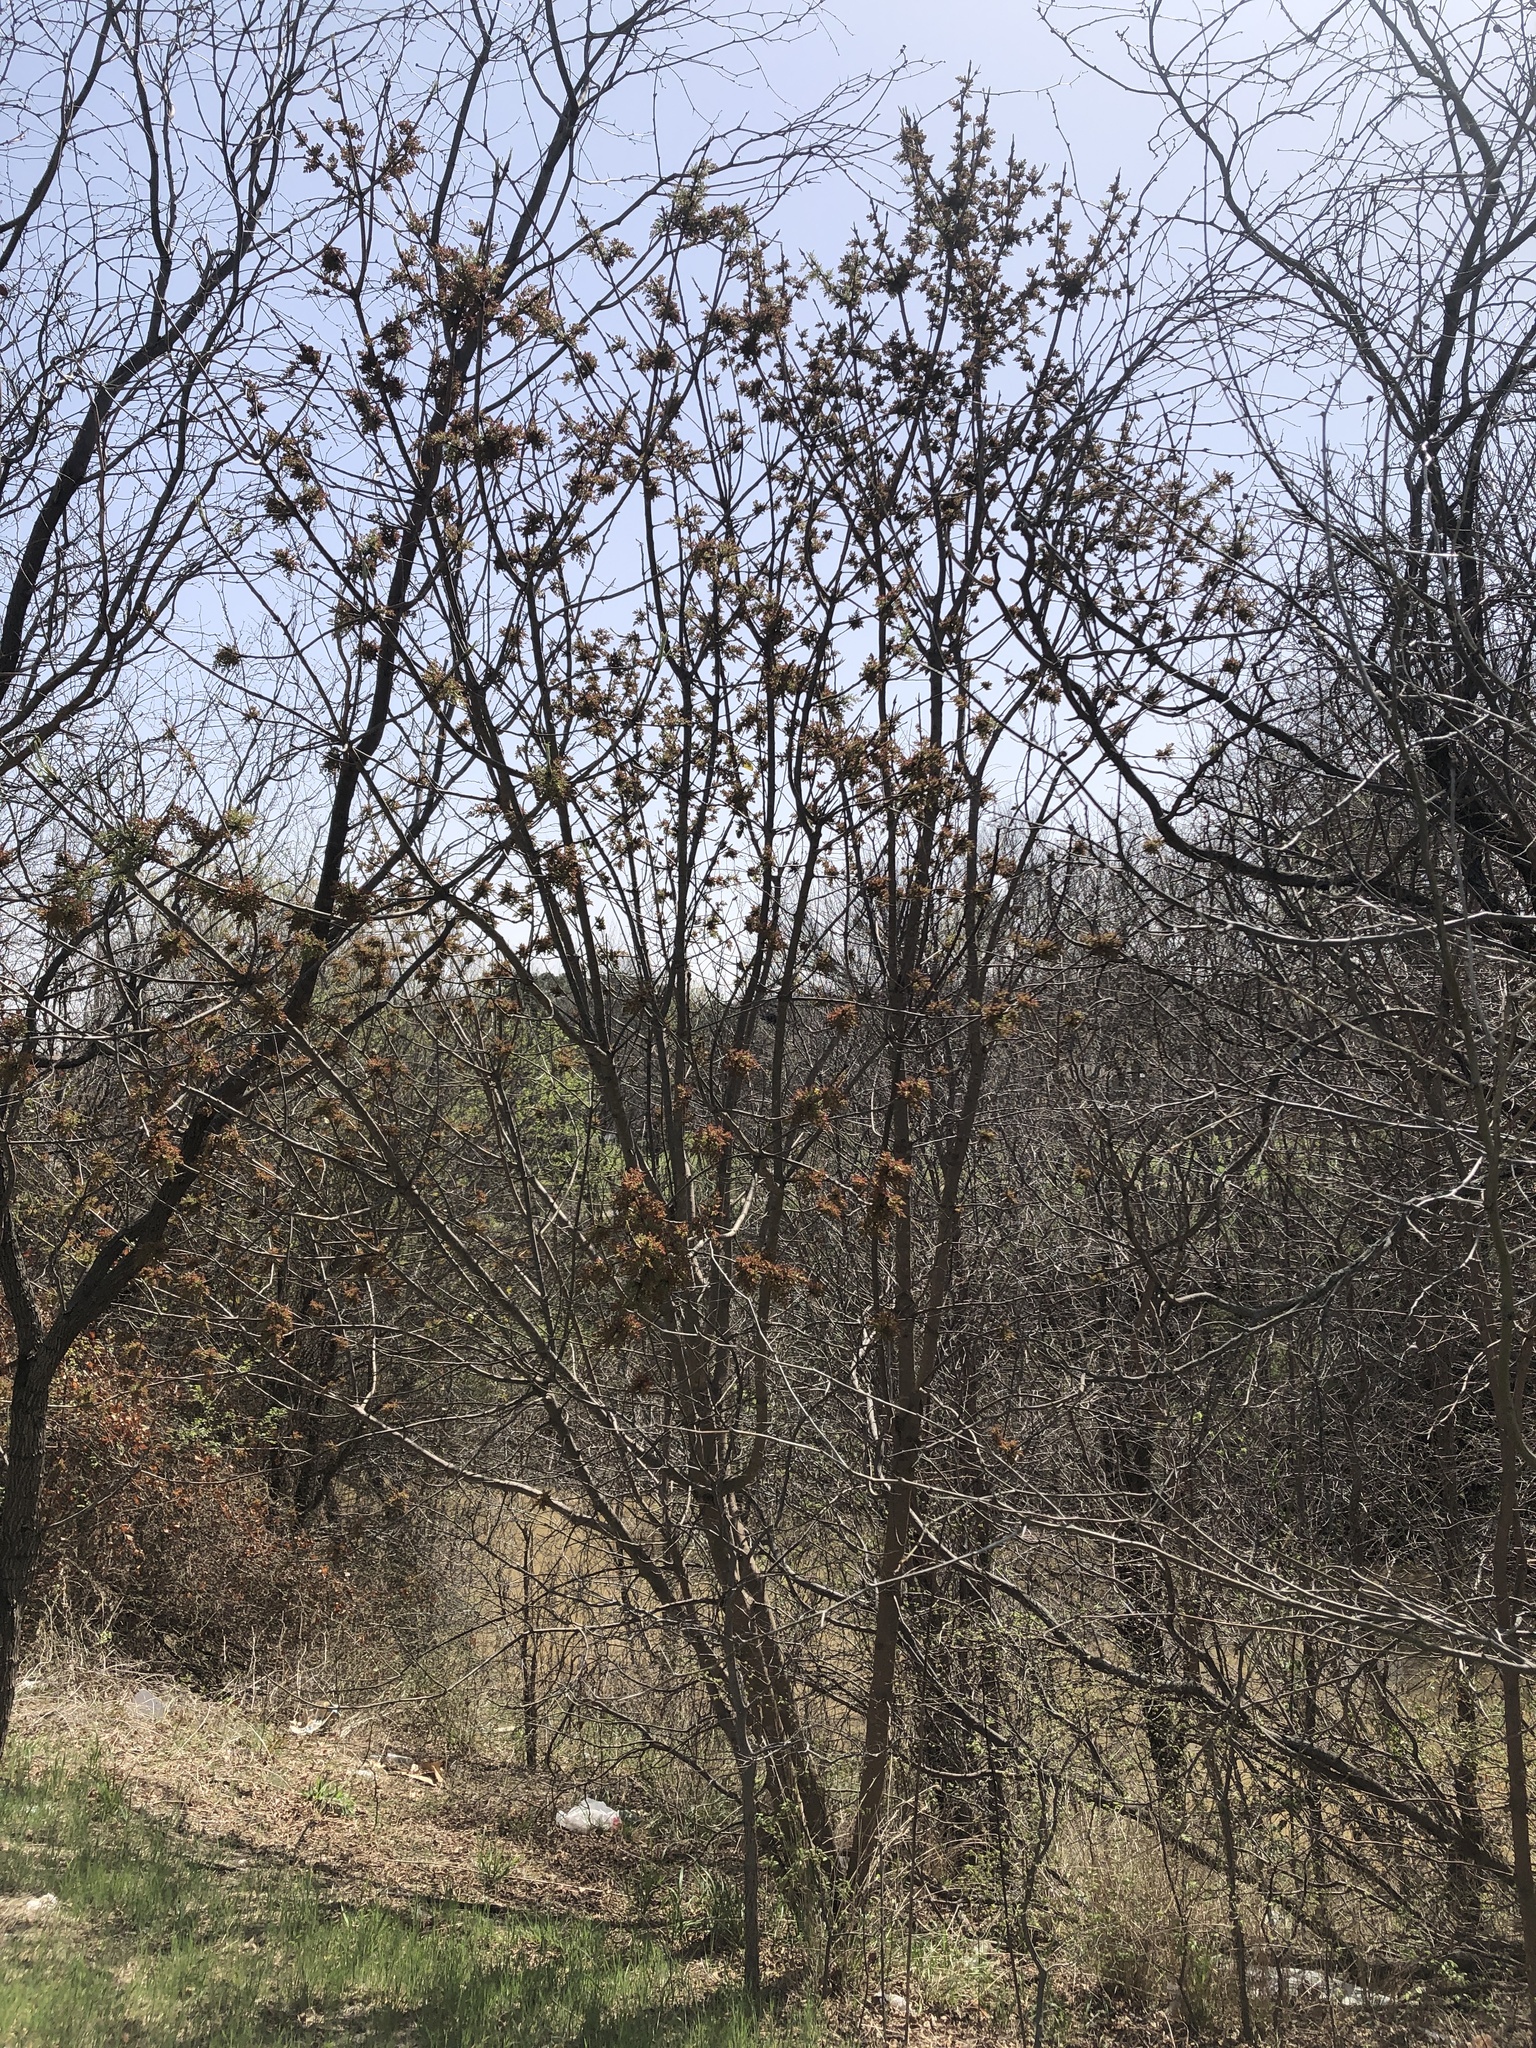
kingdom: Plantae
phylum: Tracheophyta
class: Magnoliopsida
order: Sapindales
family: Anacardiaceae
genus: Pistacia
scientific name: Pistacia chinensis
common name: Chinese pistache
